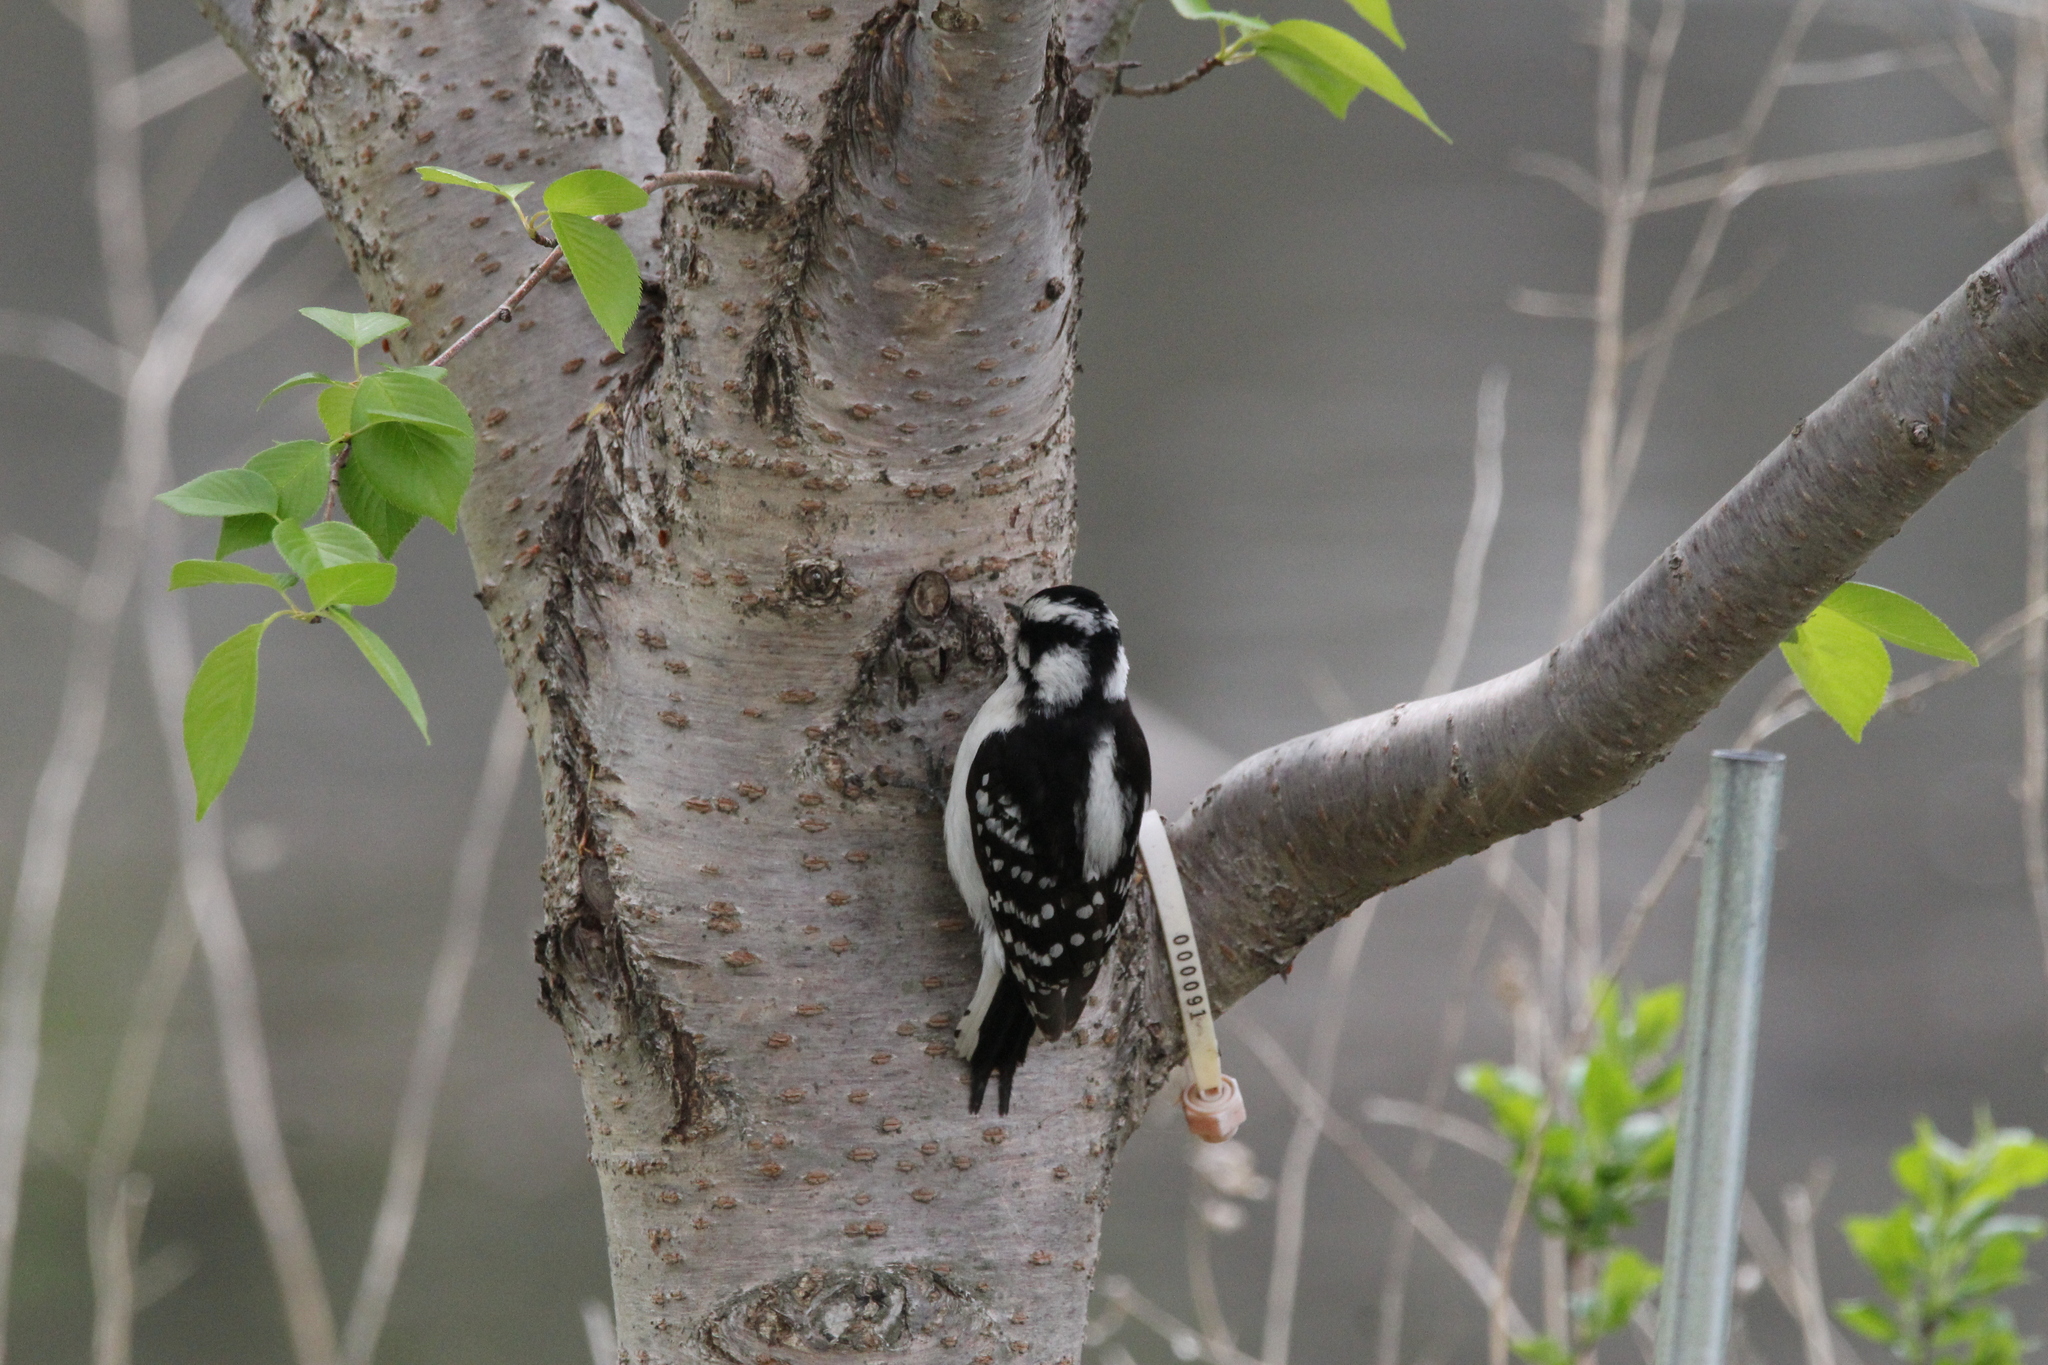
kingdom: Animalia
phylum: Chordata
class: Aves
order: Piciformes
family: Picidae
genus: Dryobates
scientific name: Dryobates pubescens
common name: Downy woodpecker
